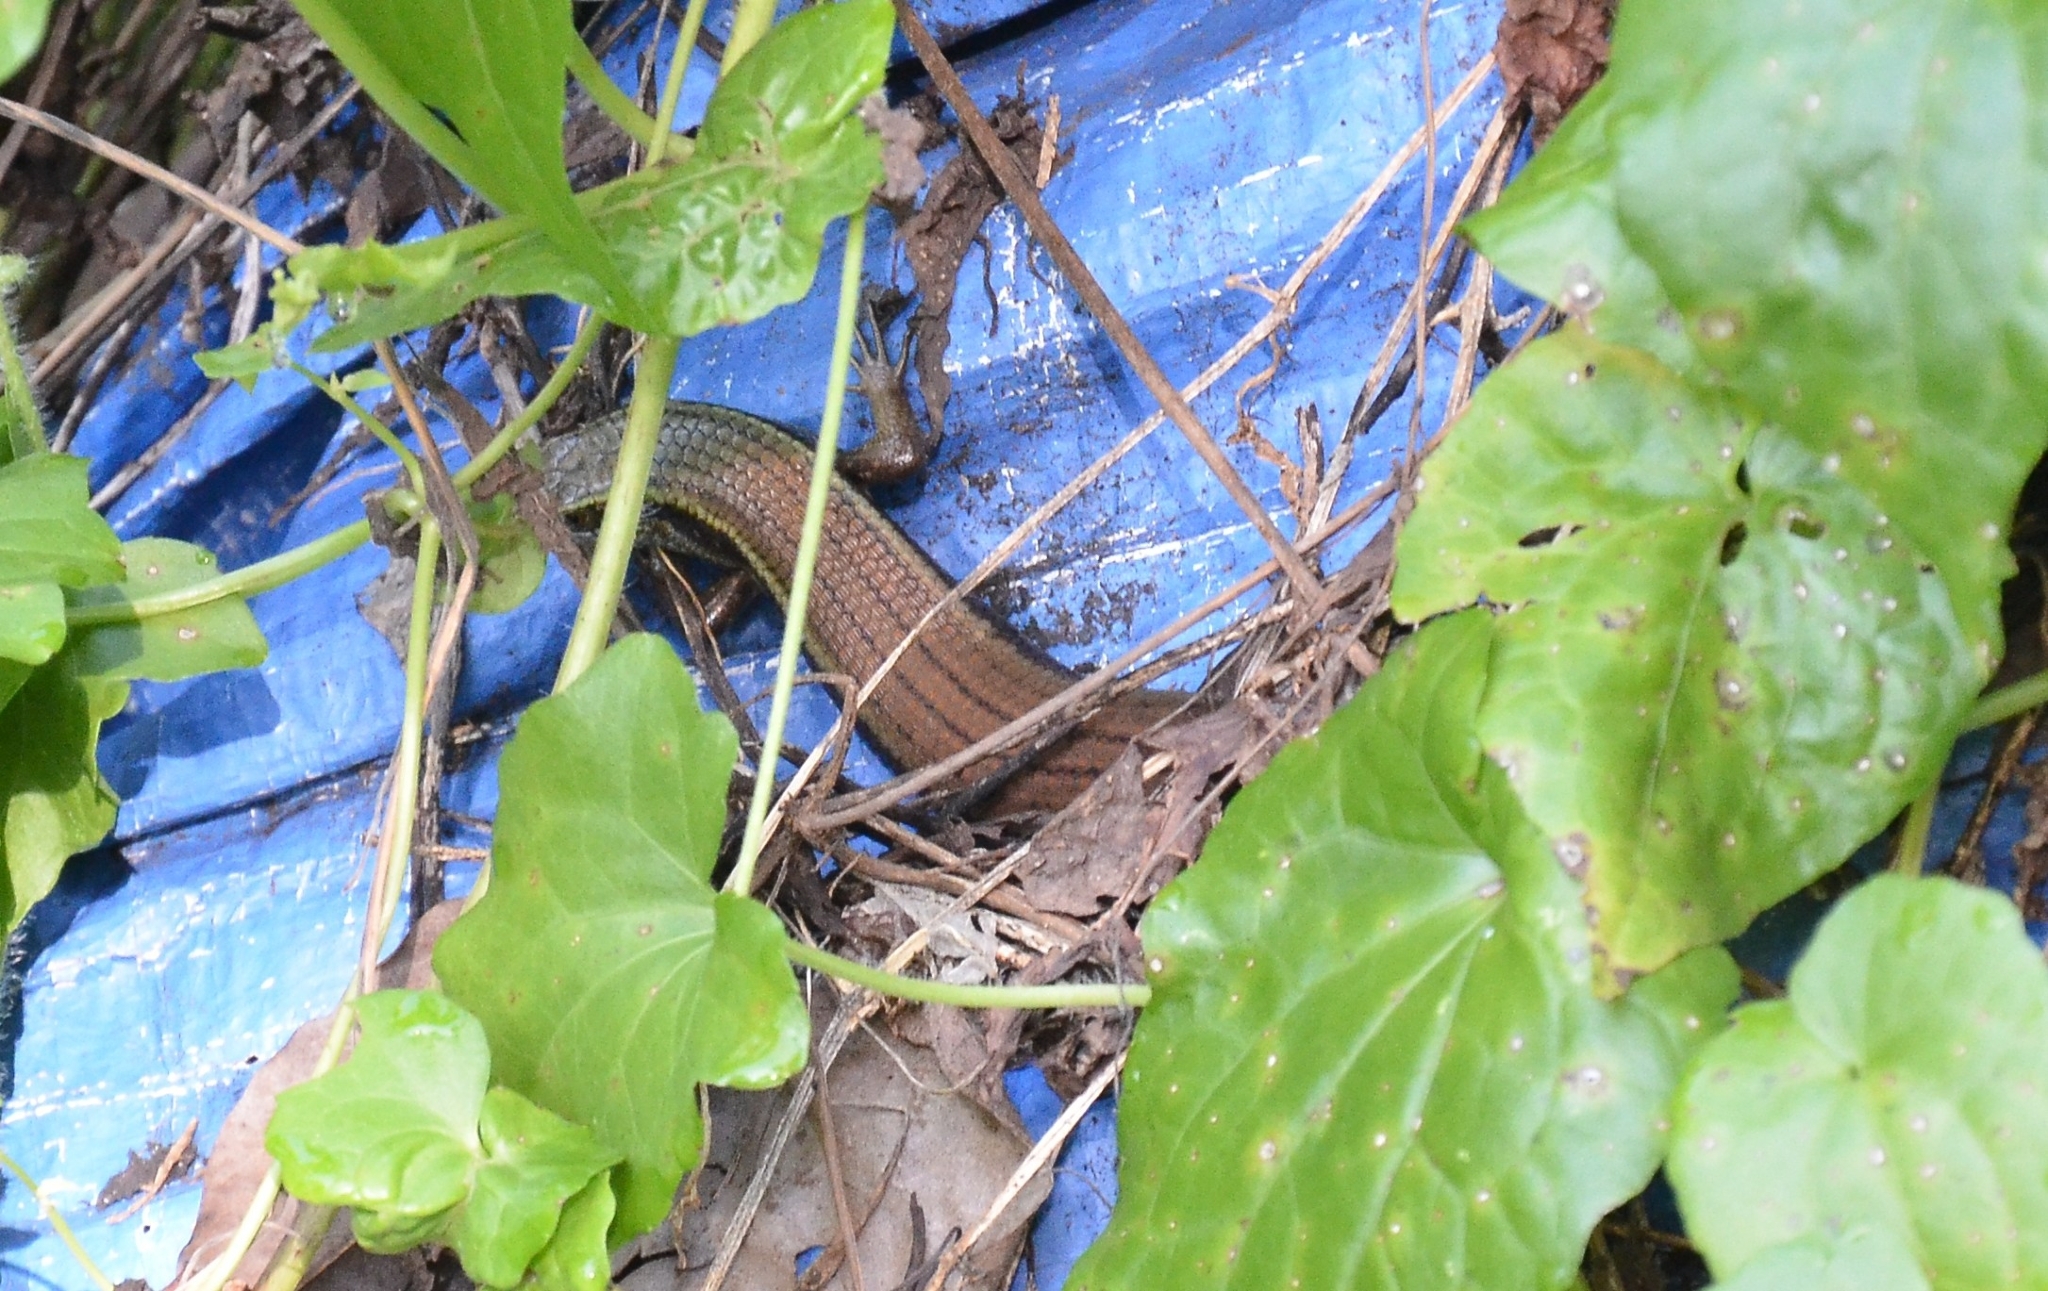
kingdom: Animalia
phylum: Chordata
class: Squamata
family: Scincidae
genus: Eutropis
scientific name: Eutropis carinata
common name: Keeled indian mabuya
